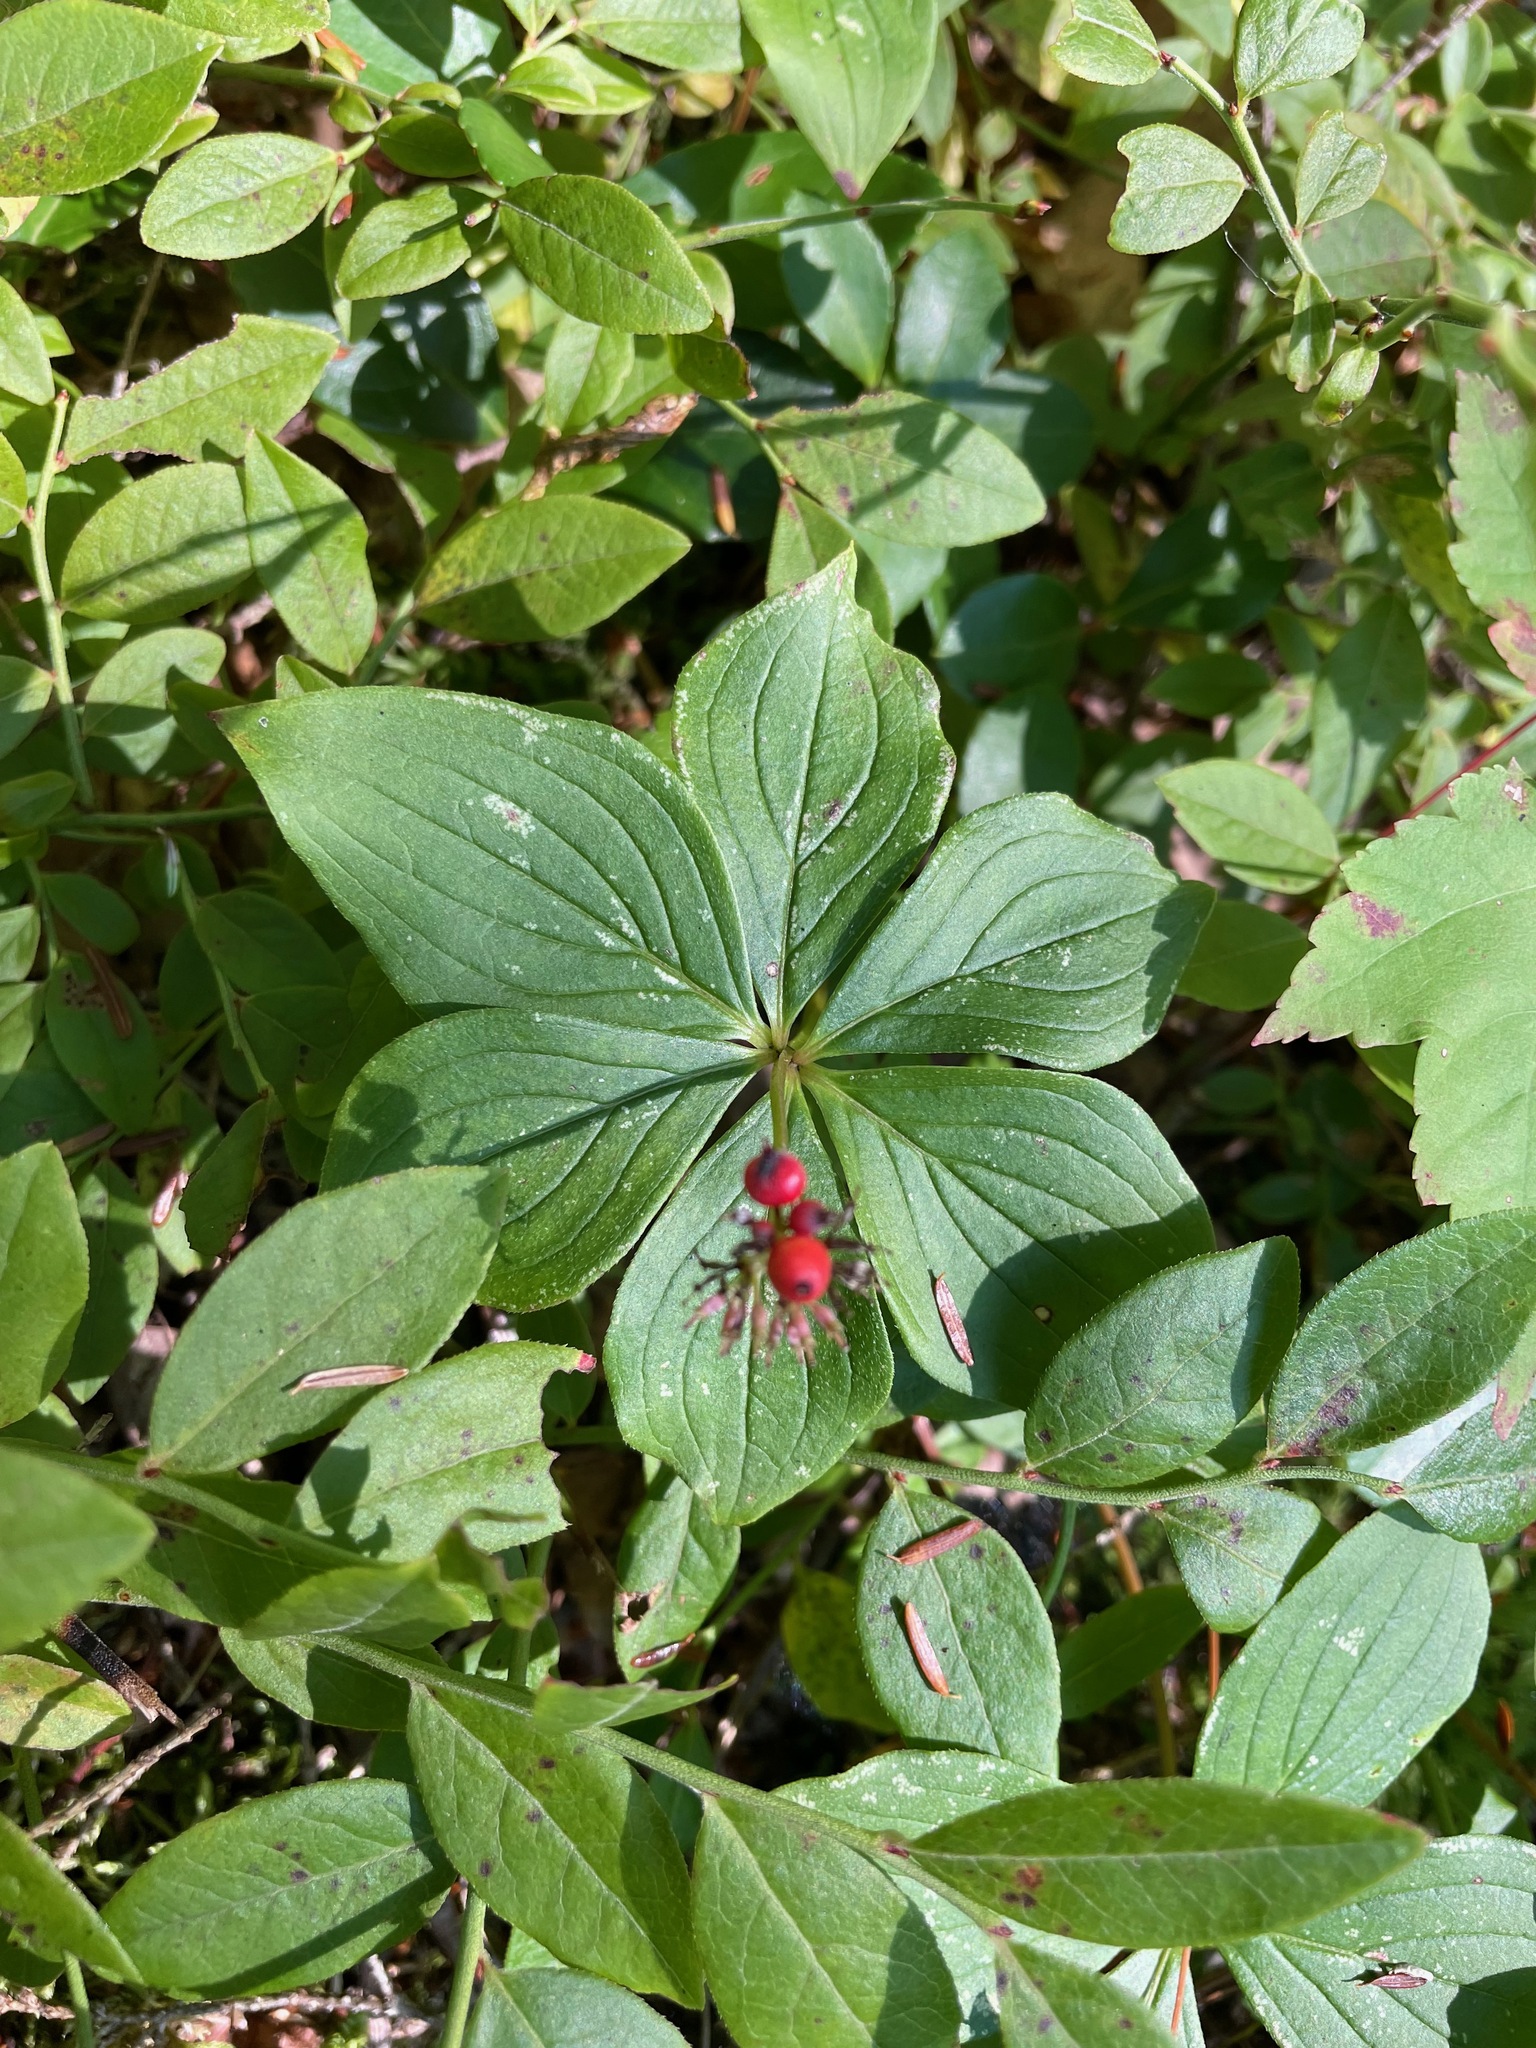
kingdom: Plantae
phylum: Tracheophyta
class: Magnoliopsida
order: Cornales
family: Cornaceae
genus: Cornus
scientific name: Cornus canadensis
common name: Creeping dogwood
